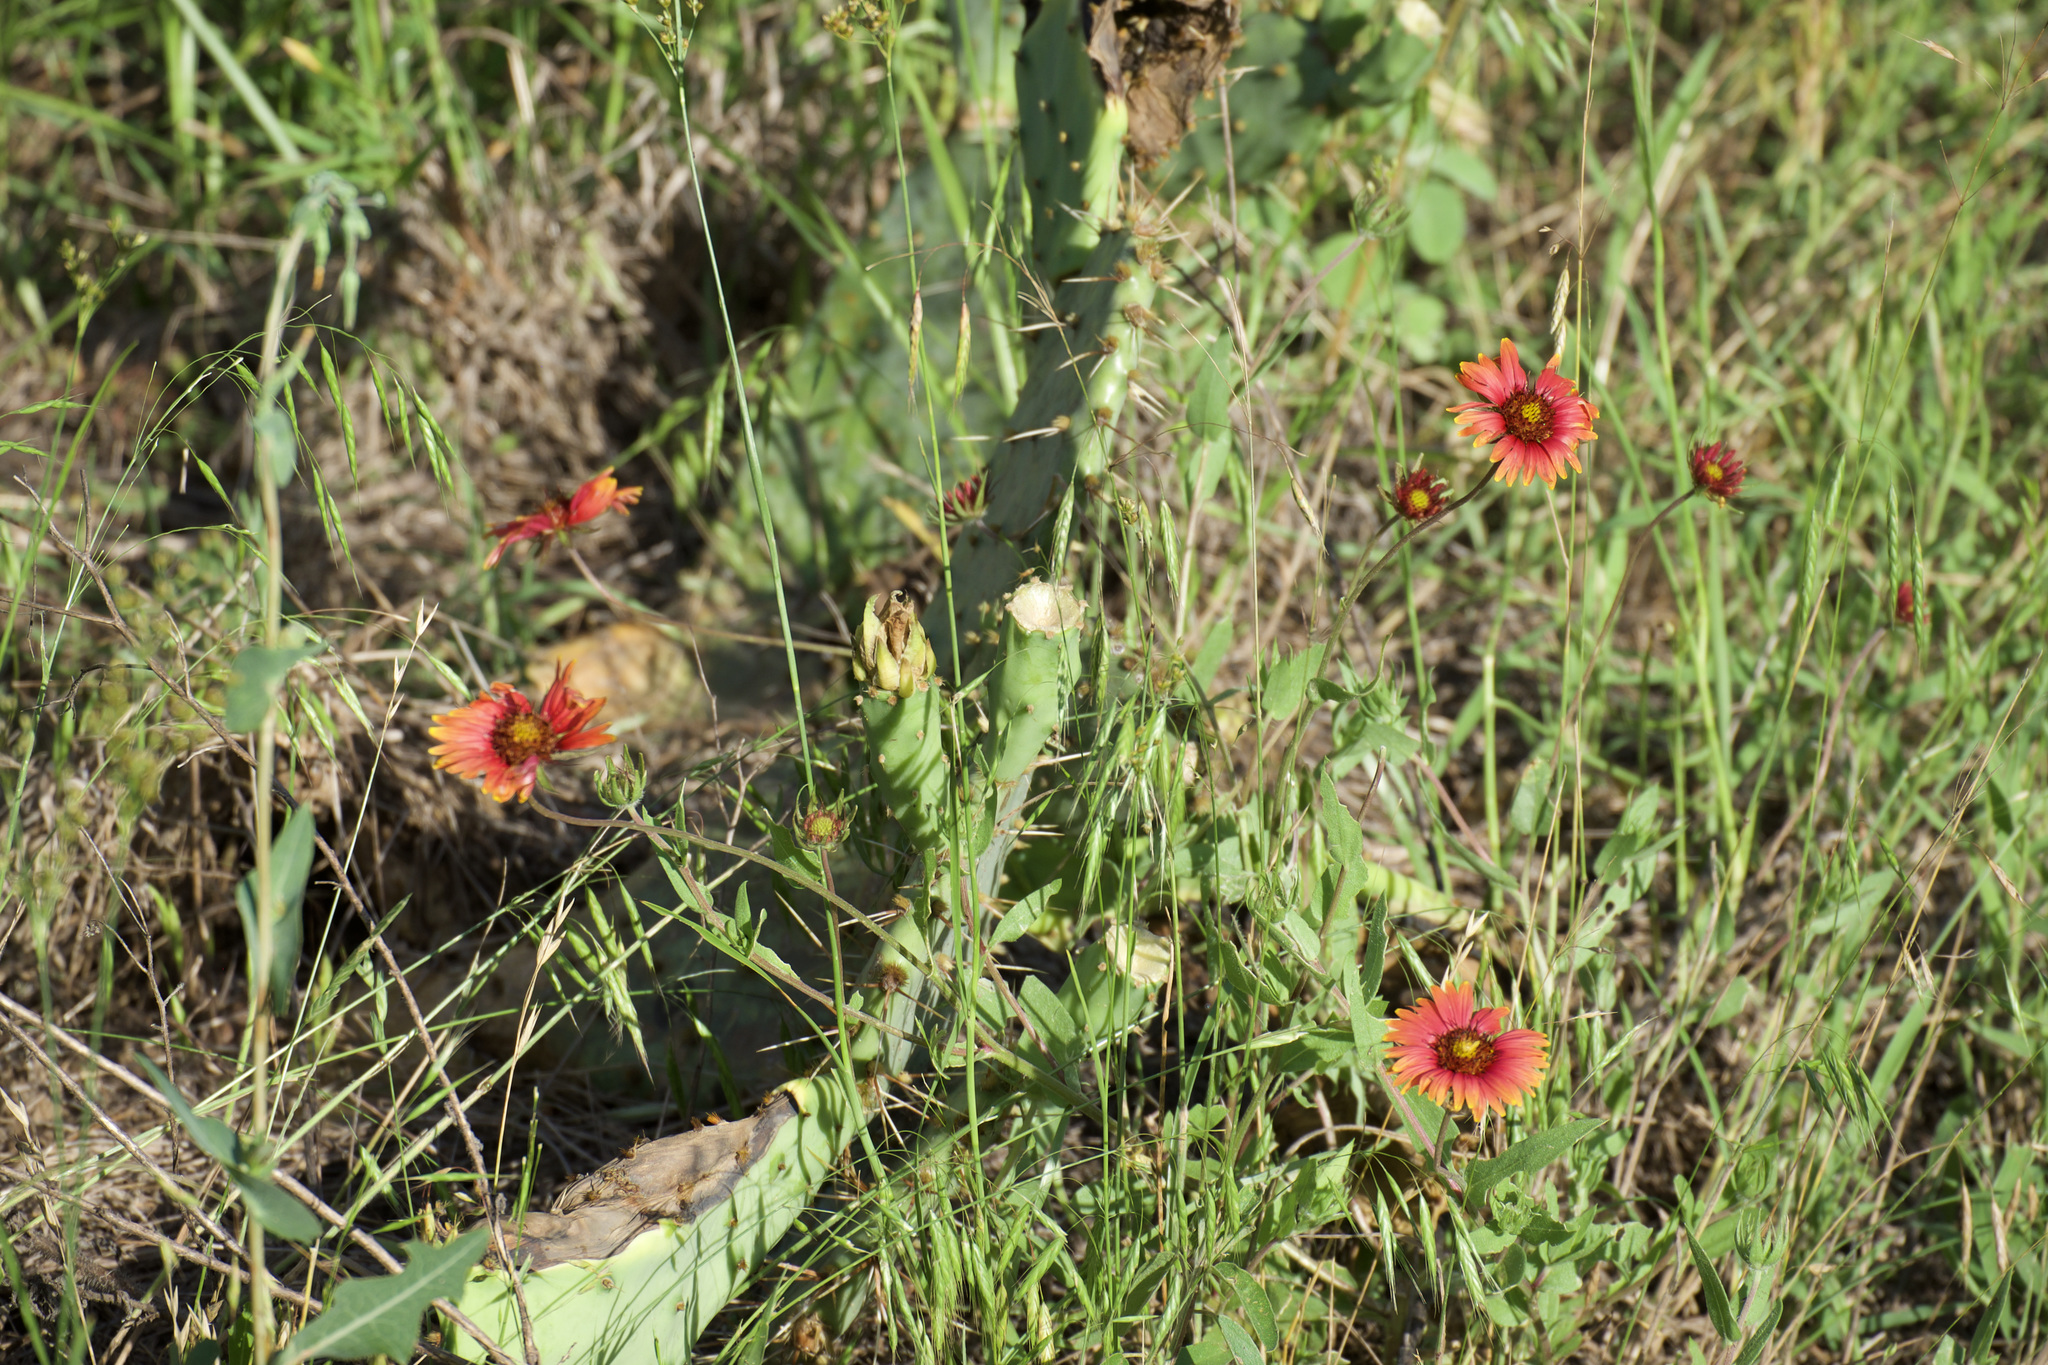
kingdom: Plantae
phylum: Tracheophyta
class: Magnoliopsida
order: Asterales
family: Asteraceae
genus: Gaillardia
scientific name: Gaillardia pulchella
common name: Firewheel
